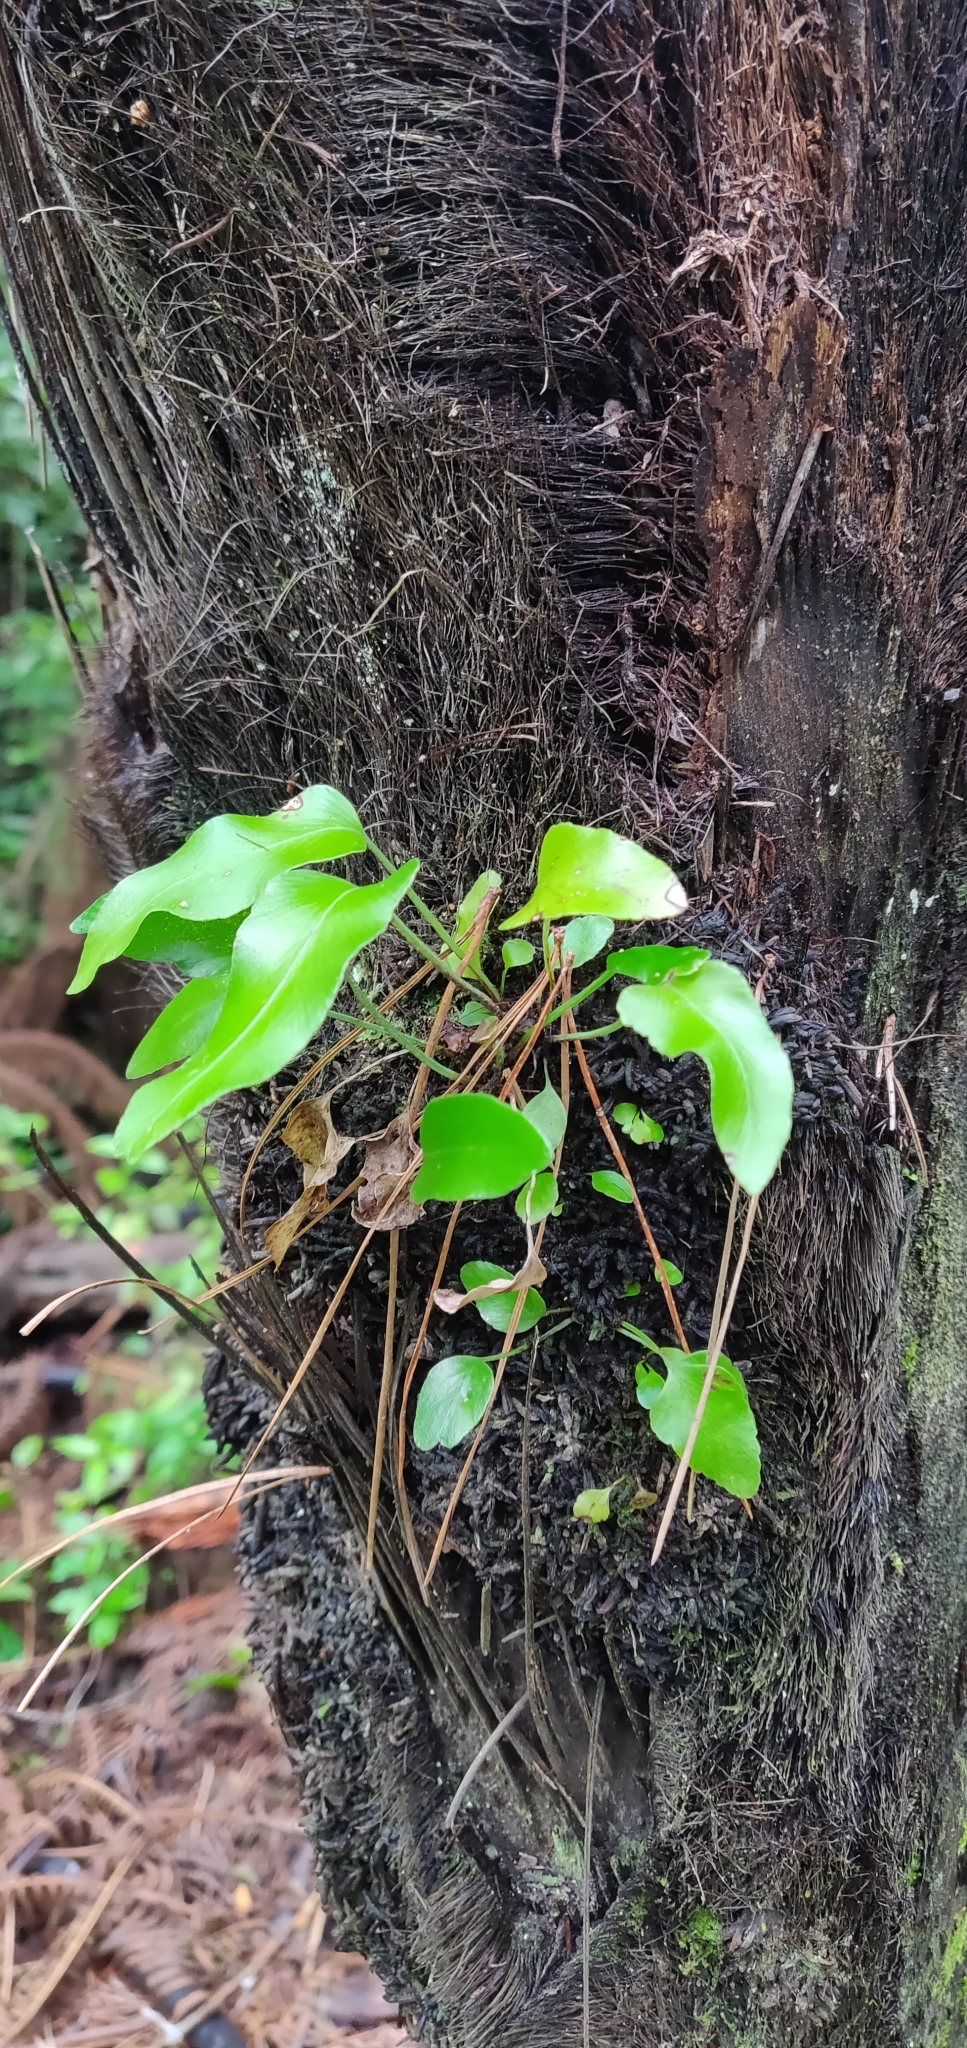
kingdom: Plantae
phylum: Tracheophyta
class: Polypodiopsida
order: Polypodiales
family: Aspleniaceae
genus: Asplenium
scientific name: Asplenium oblongifolium
